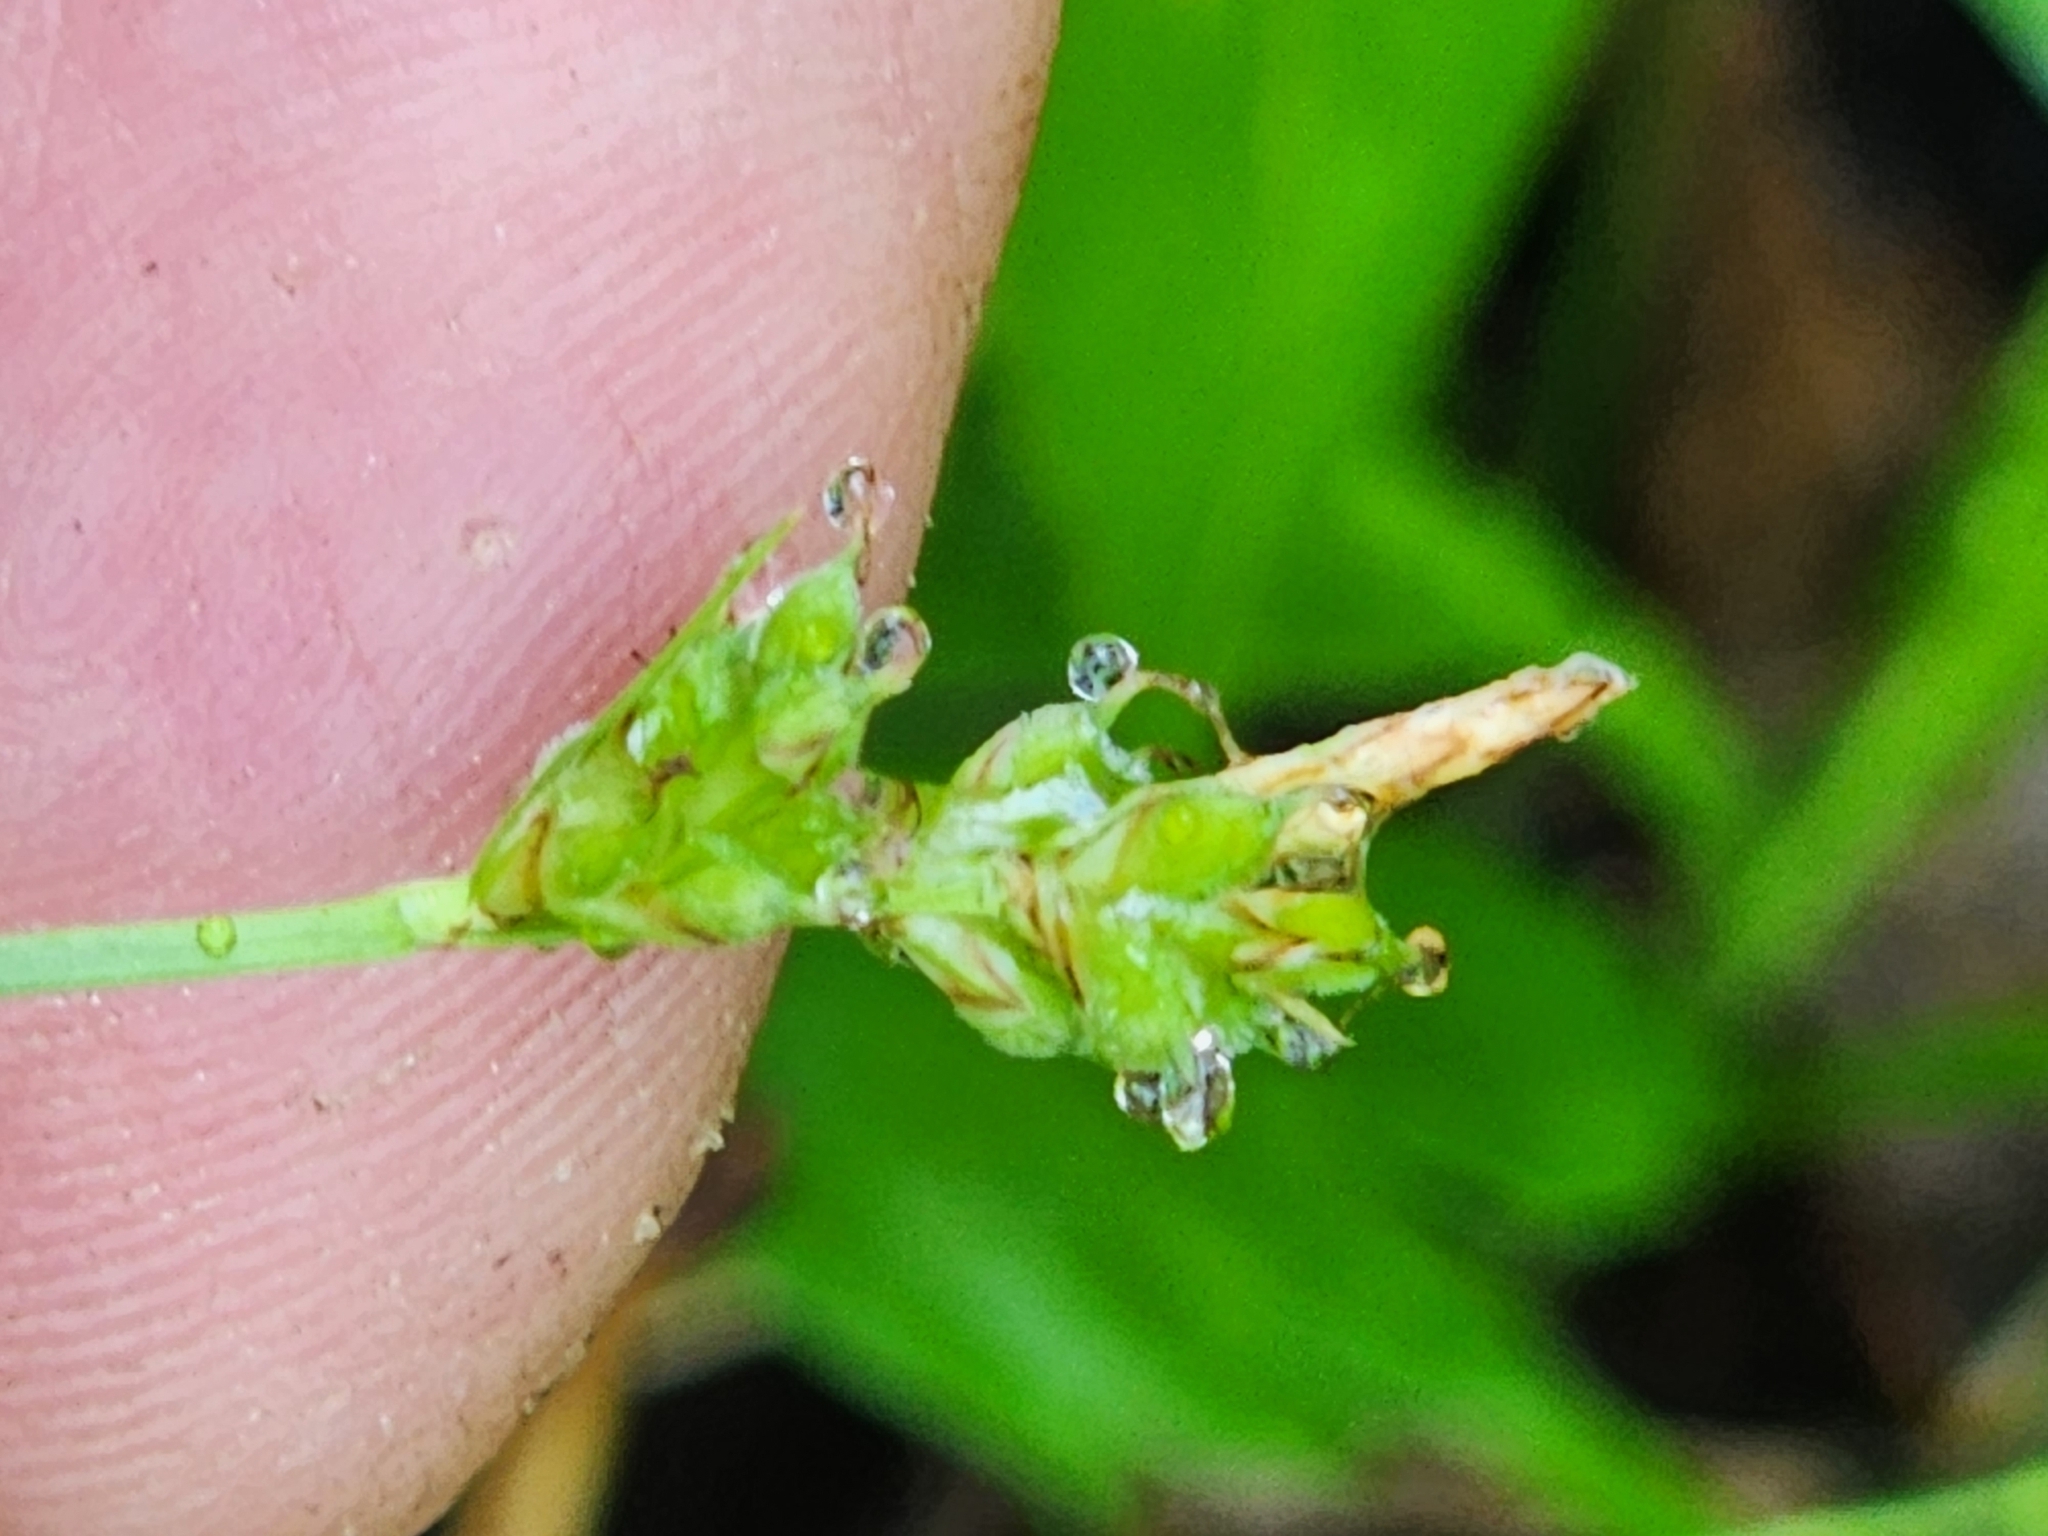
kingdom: Plantae
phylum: Tracheophyta
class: Liliopsida
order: Poales
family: Cyperaceae
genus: Carex
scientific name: Carex peckii
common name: Peck's oak sedge
